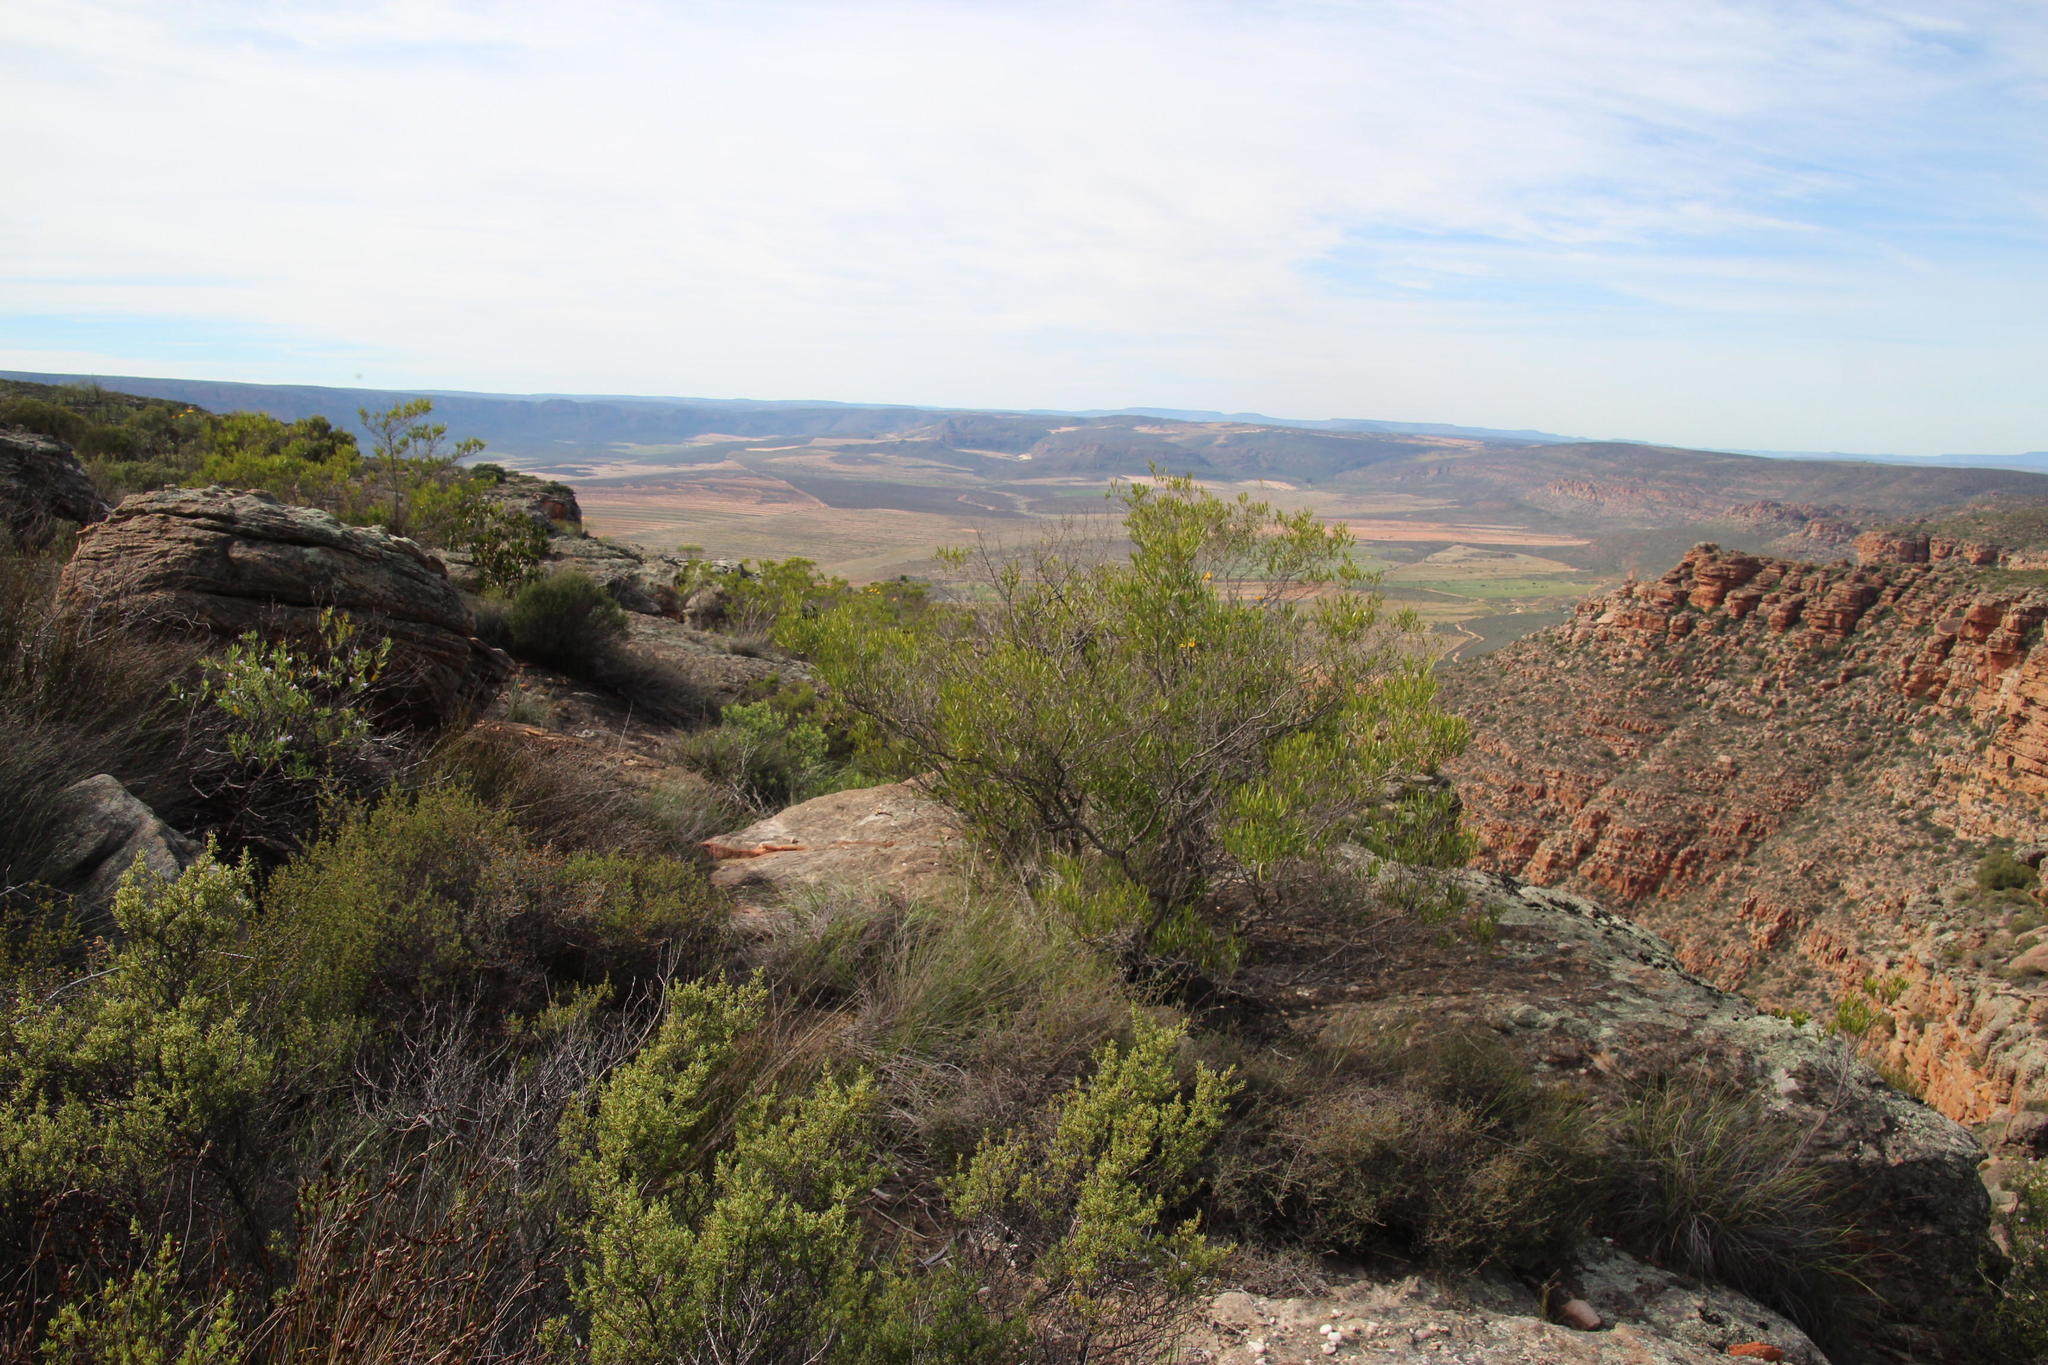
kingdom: Plantae
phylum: Tracheophyta
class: Magnoliopsida
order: Sapindales
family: Sapindaceae
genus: Dodonaea
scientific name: Dodonaea viscosa
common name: Hopbush
